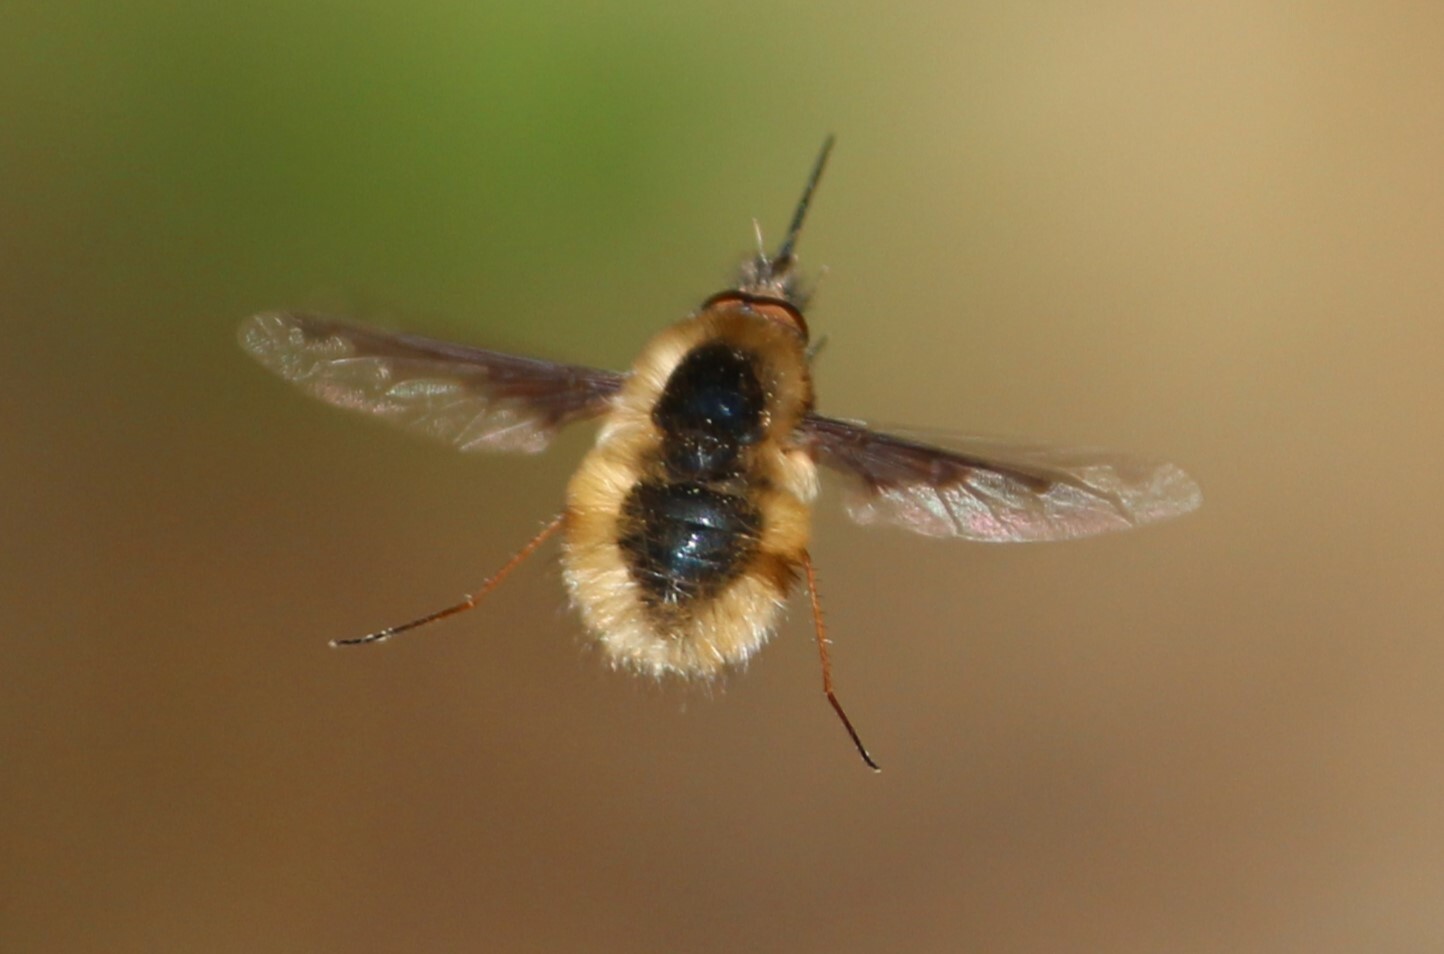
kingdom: Animalia
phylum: Arthropoda
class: Insecta
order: Diptera
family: Bombyliidae
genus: Bombylius
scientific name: Bombylius major
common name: Bee fly
